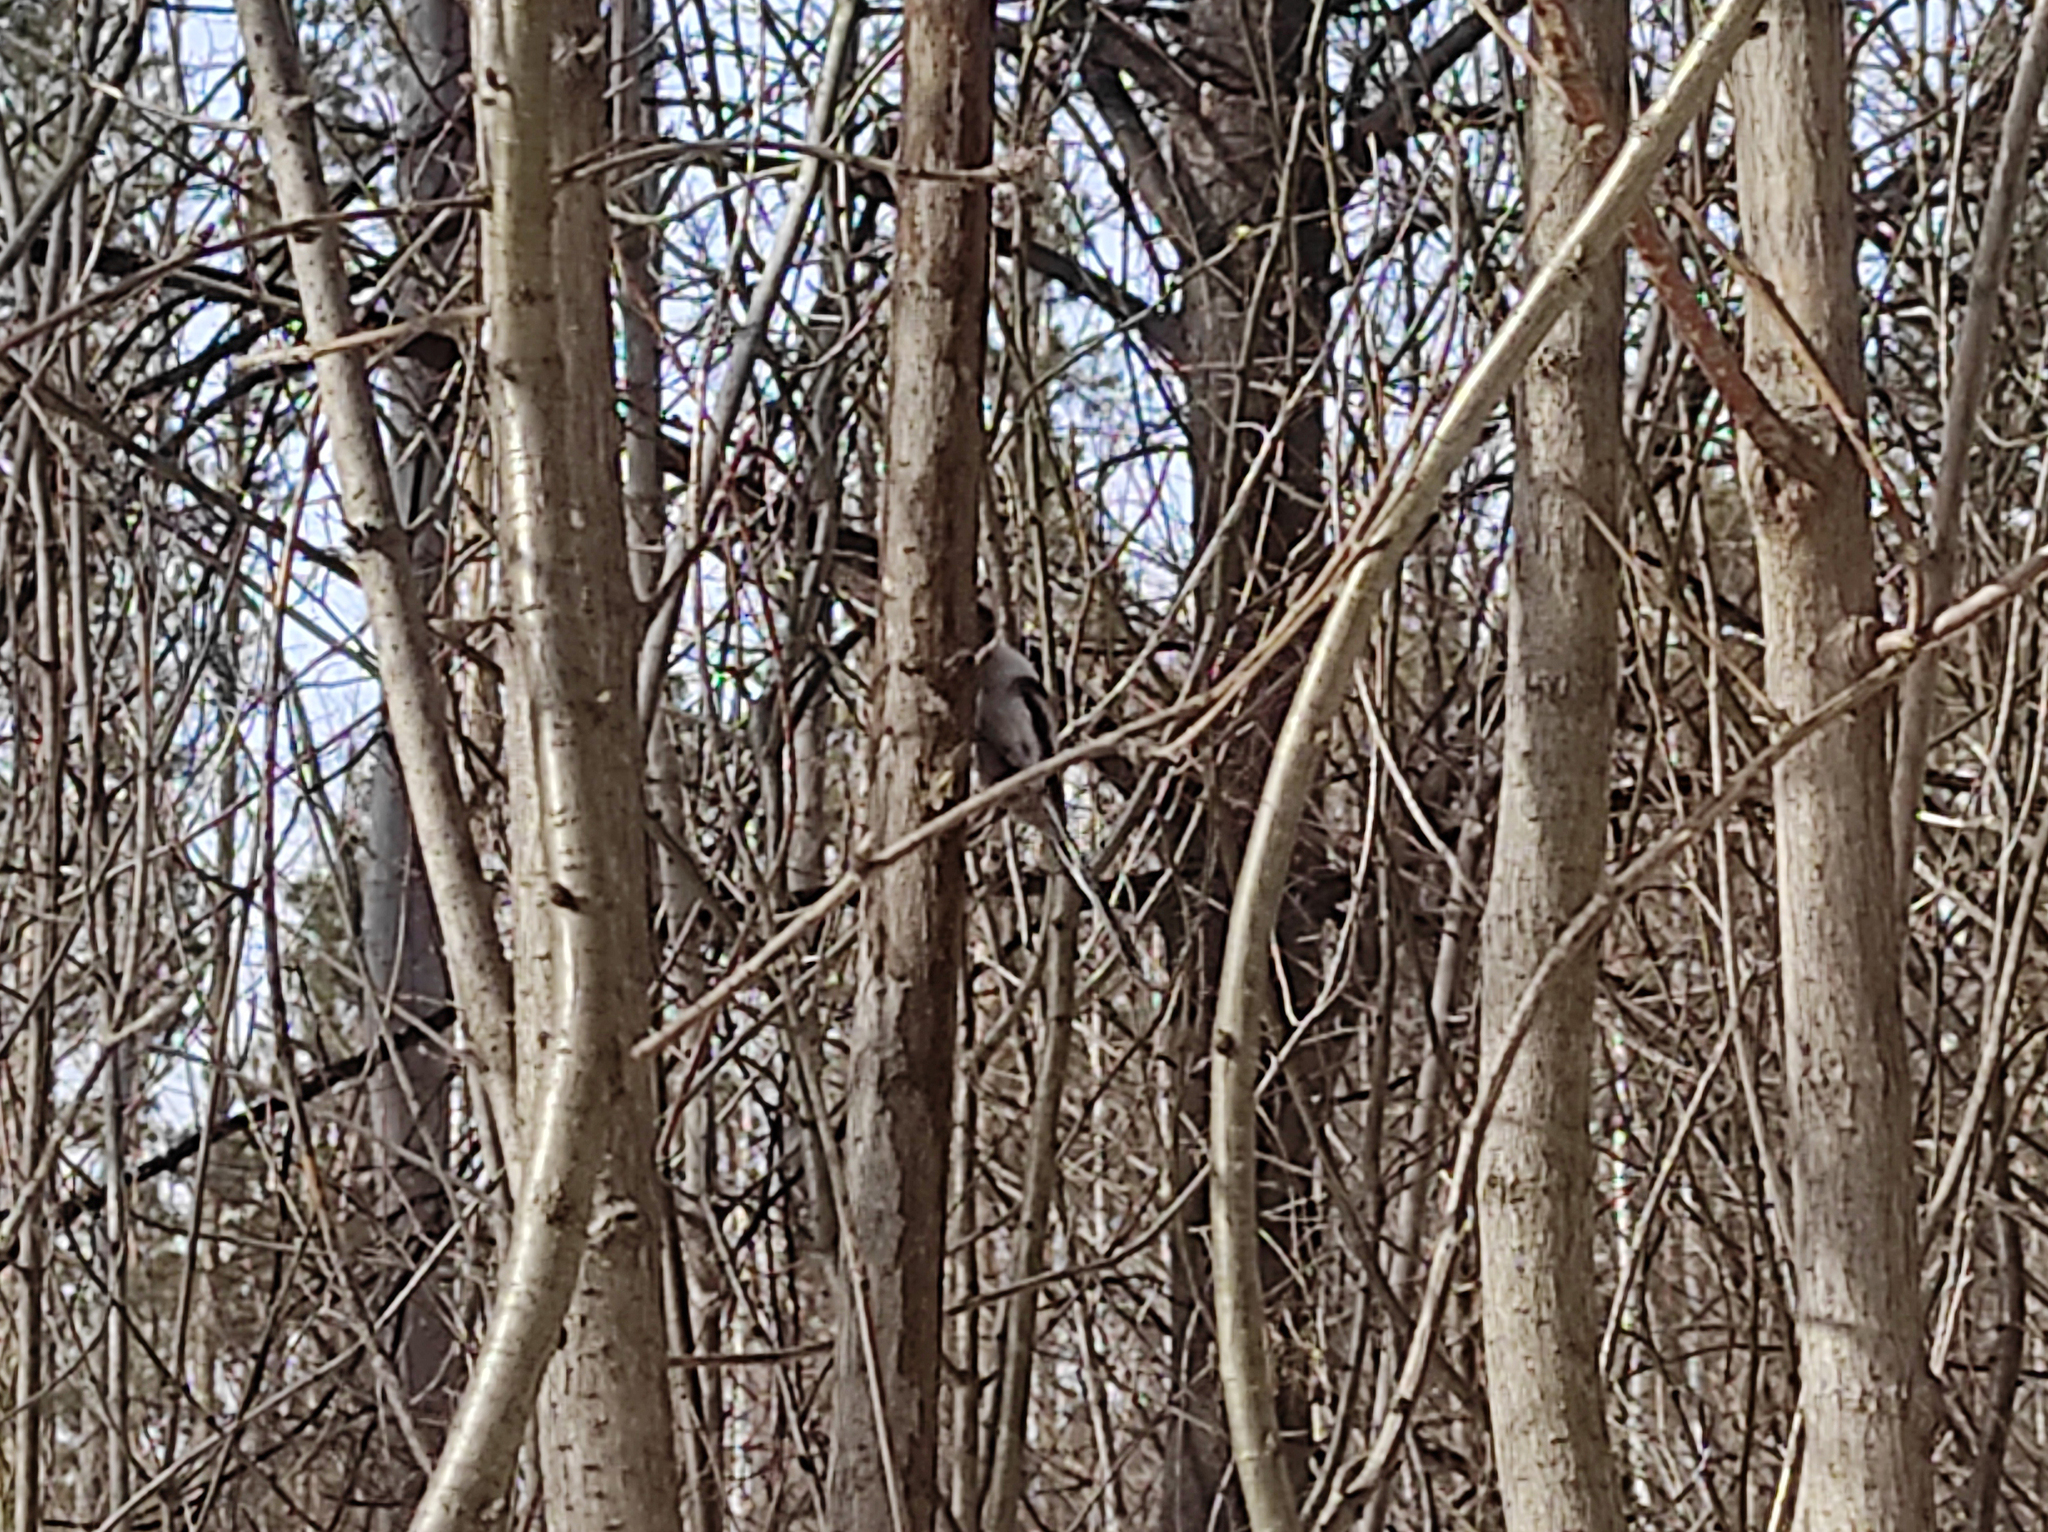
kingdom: Animalia
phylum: Chordata
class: Aves
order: Passeriformes
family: Aegithalidae
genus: Aegithalos
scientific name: Aegithalos caudatus
